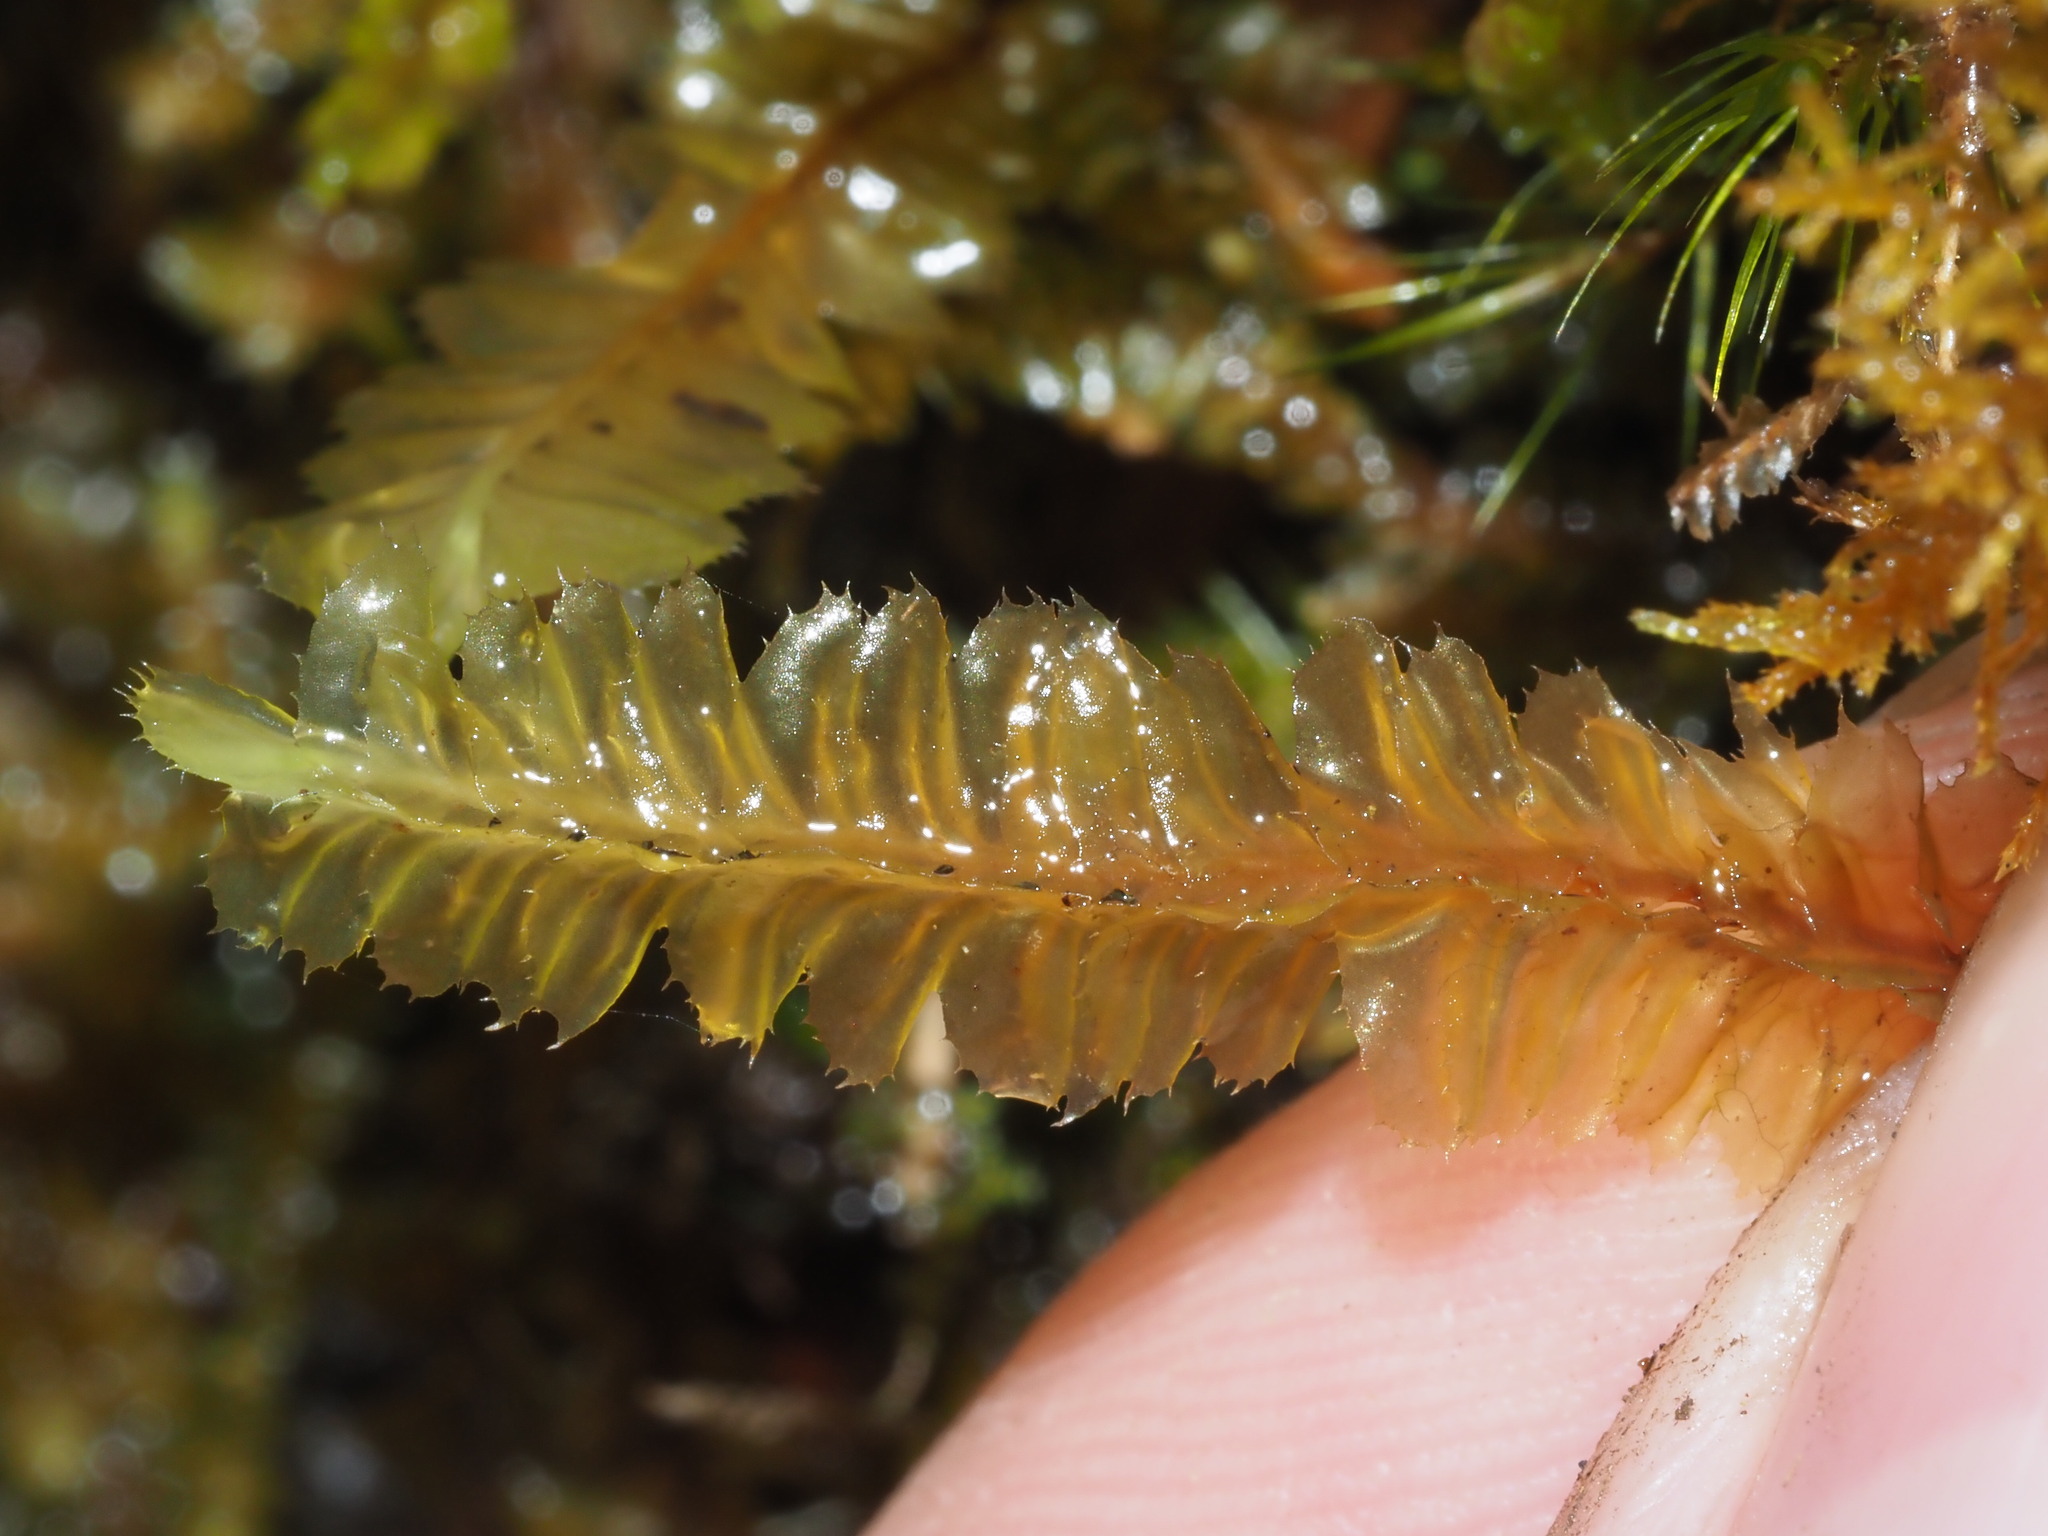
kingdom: Plantae
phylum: Marchantiophyta
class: Jungermanniopsida
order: Jungermanniales
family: Plagiochilaceae
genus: Plagiochila
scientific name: Plagiochila deflexa
